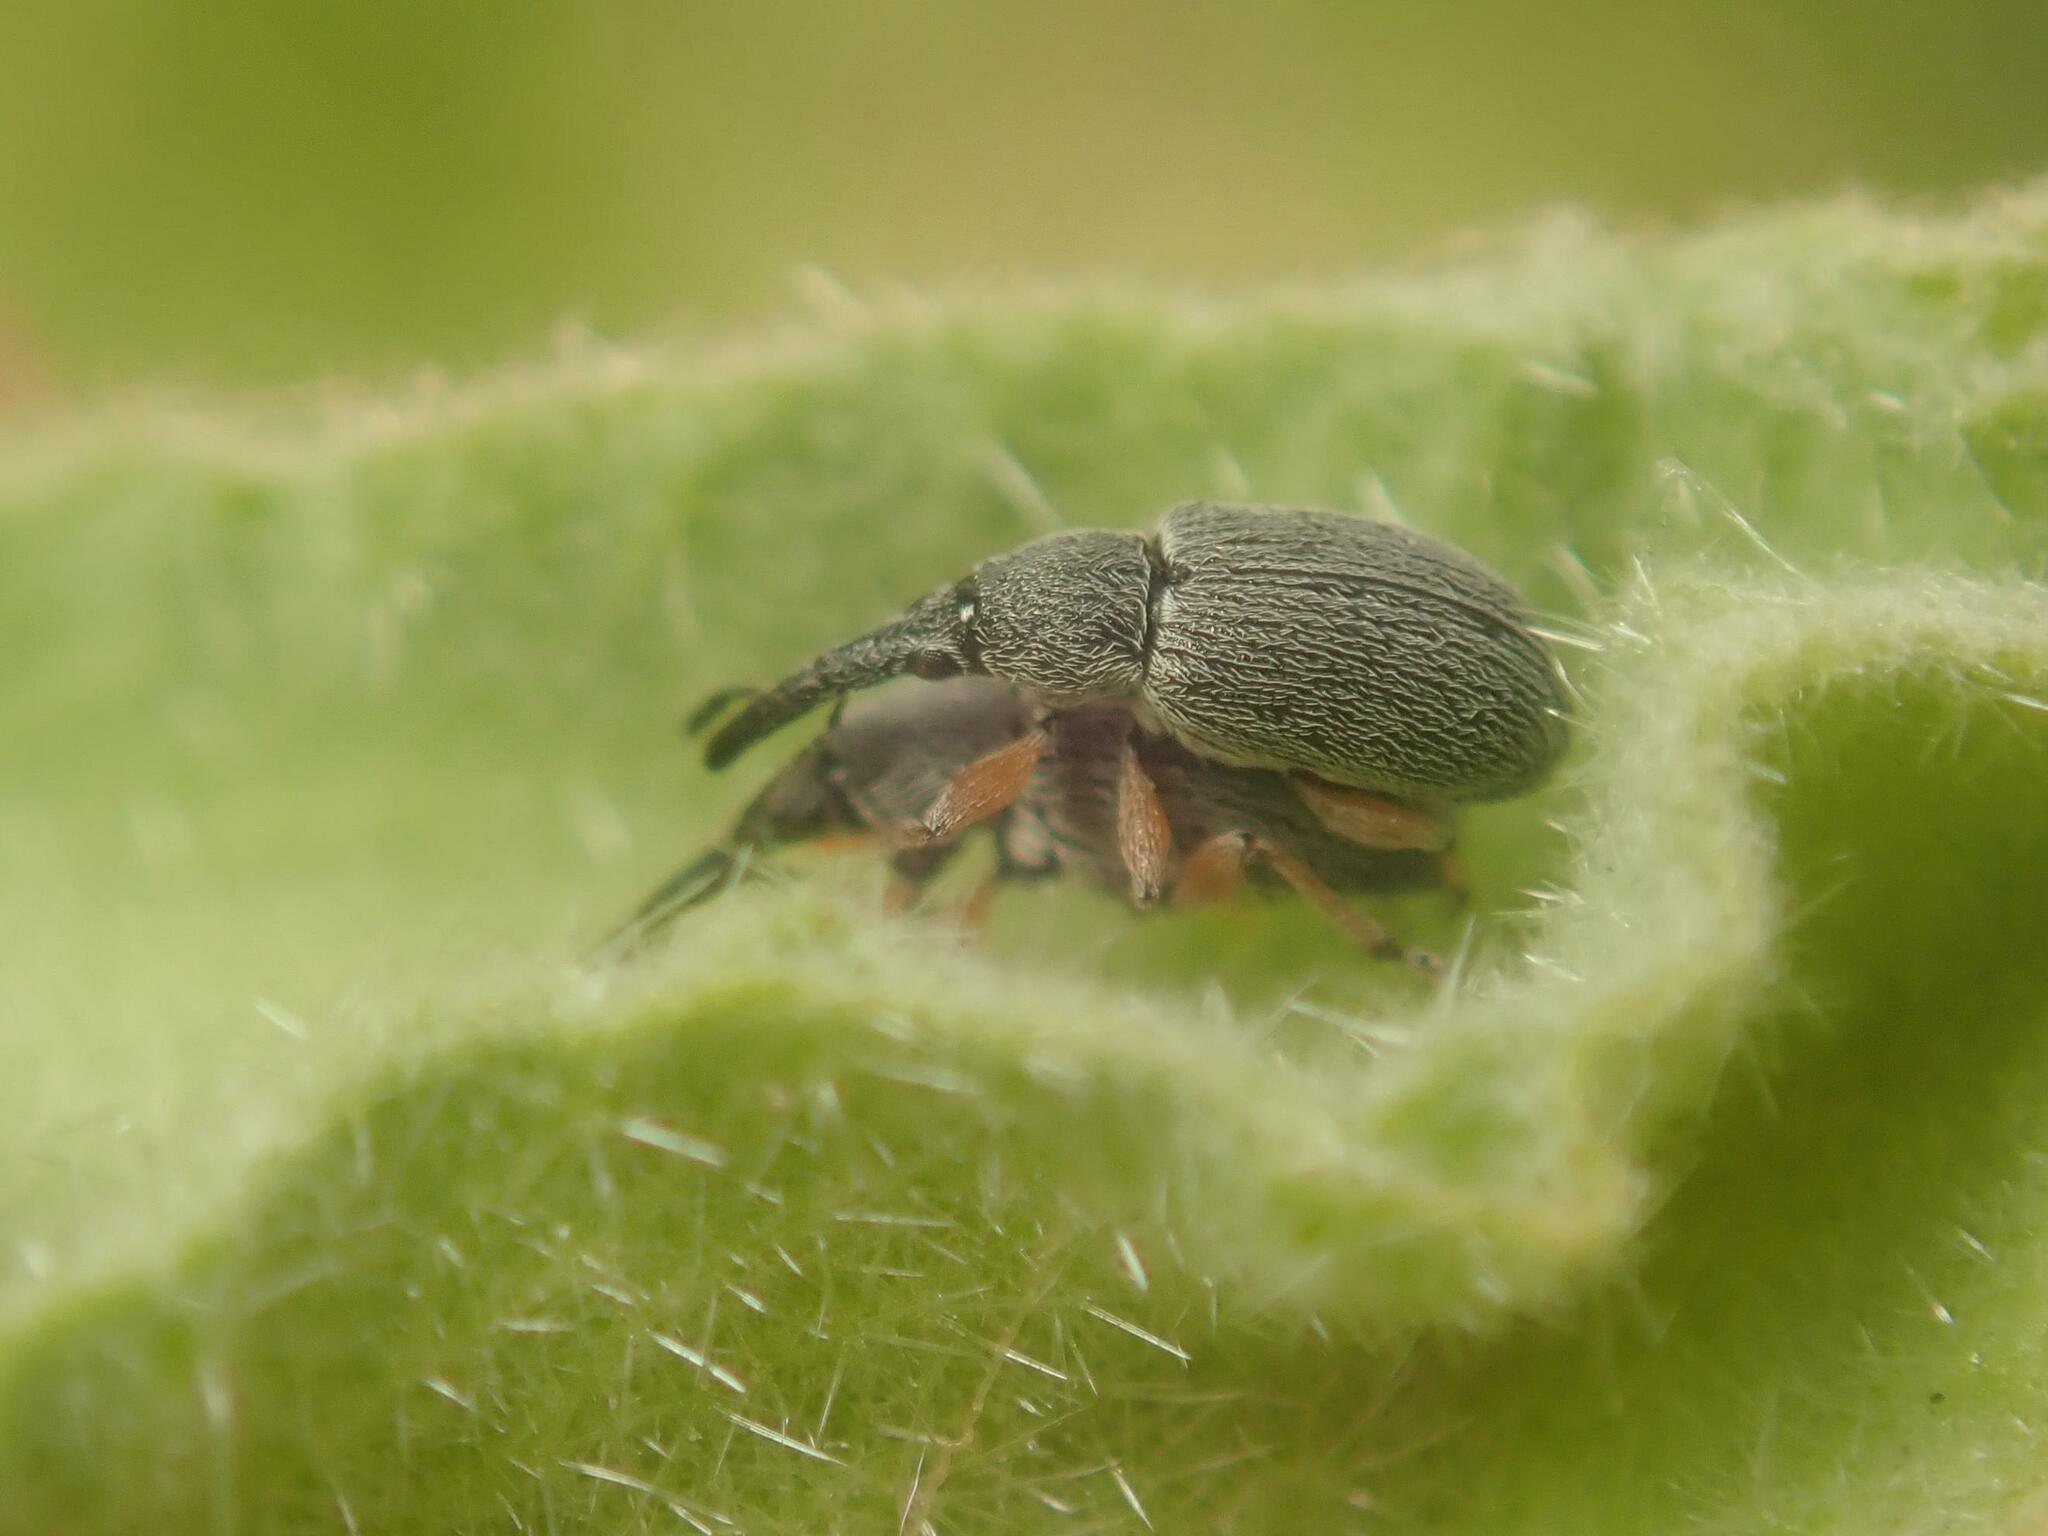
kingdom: Animalia
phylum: Arthropoda
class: Insecta
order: Coleoptera
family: Brentidae
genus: Rhopalapion
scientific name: Rhopalapion longirostre
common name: Hollyhock weevil
